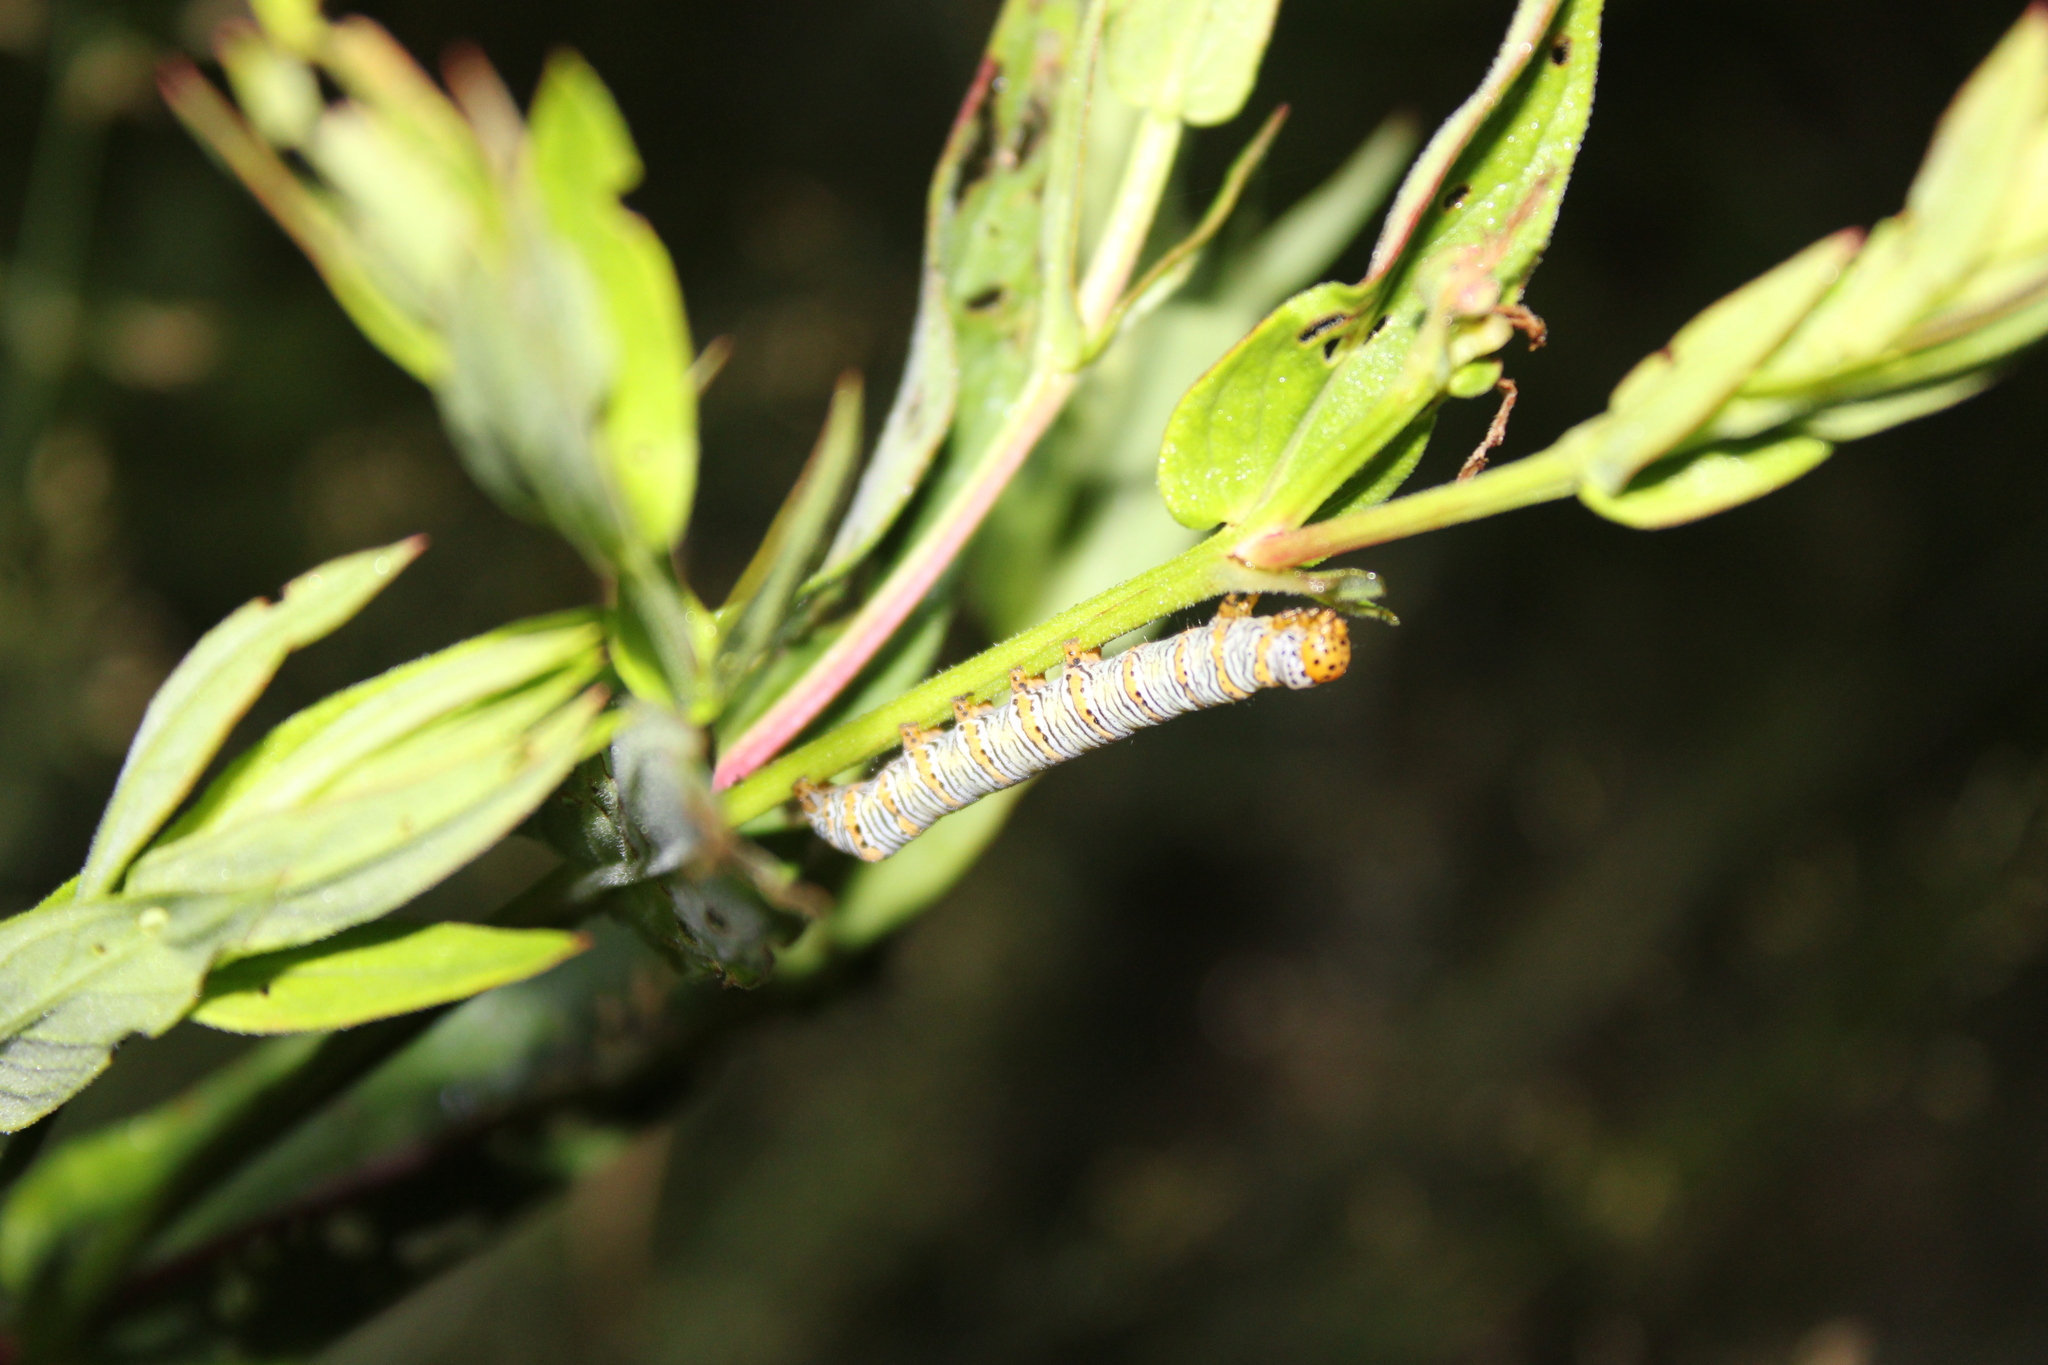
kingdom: Animalia
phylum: Arthropoda
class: Insecta
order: Lepidoptera
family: Noctuidae
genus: Eudryas
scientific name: Eudryas unio
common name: Pearly wood-nymph
